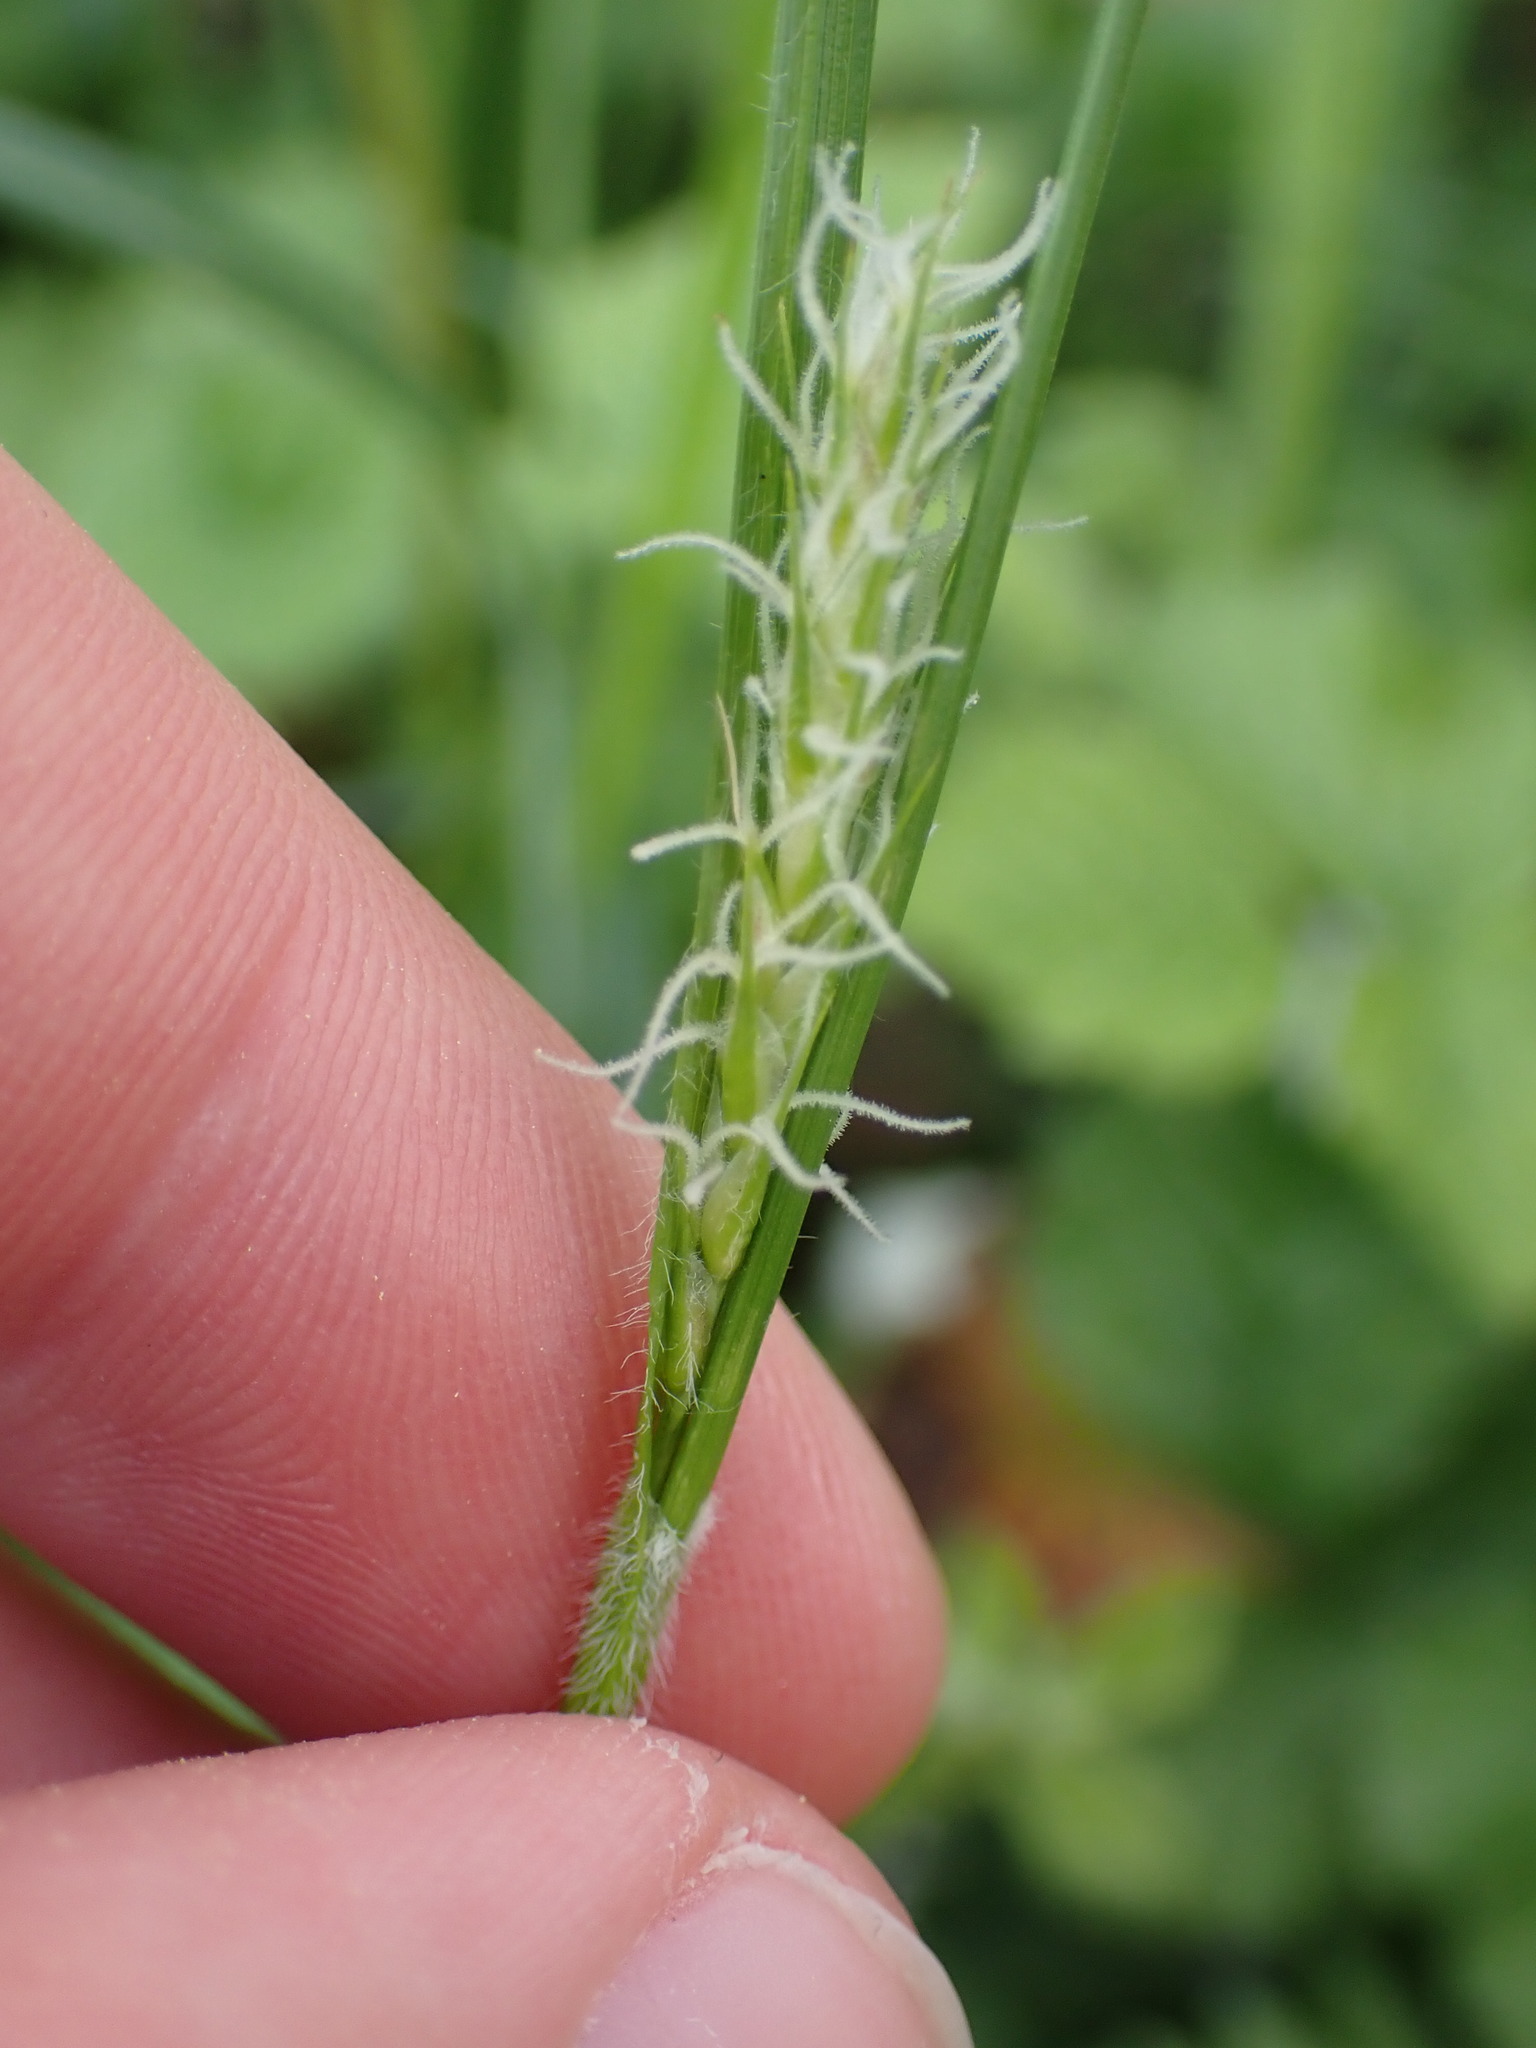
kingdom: Plantae
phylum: Tracheophyta
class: Liliopsida
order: Poales
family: Cyperaceae
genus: Carex
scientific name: Carex hirta
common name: Hairy sedge
